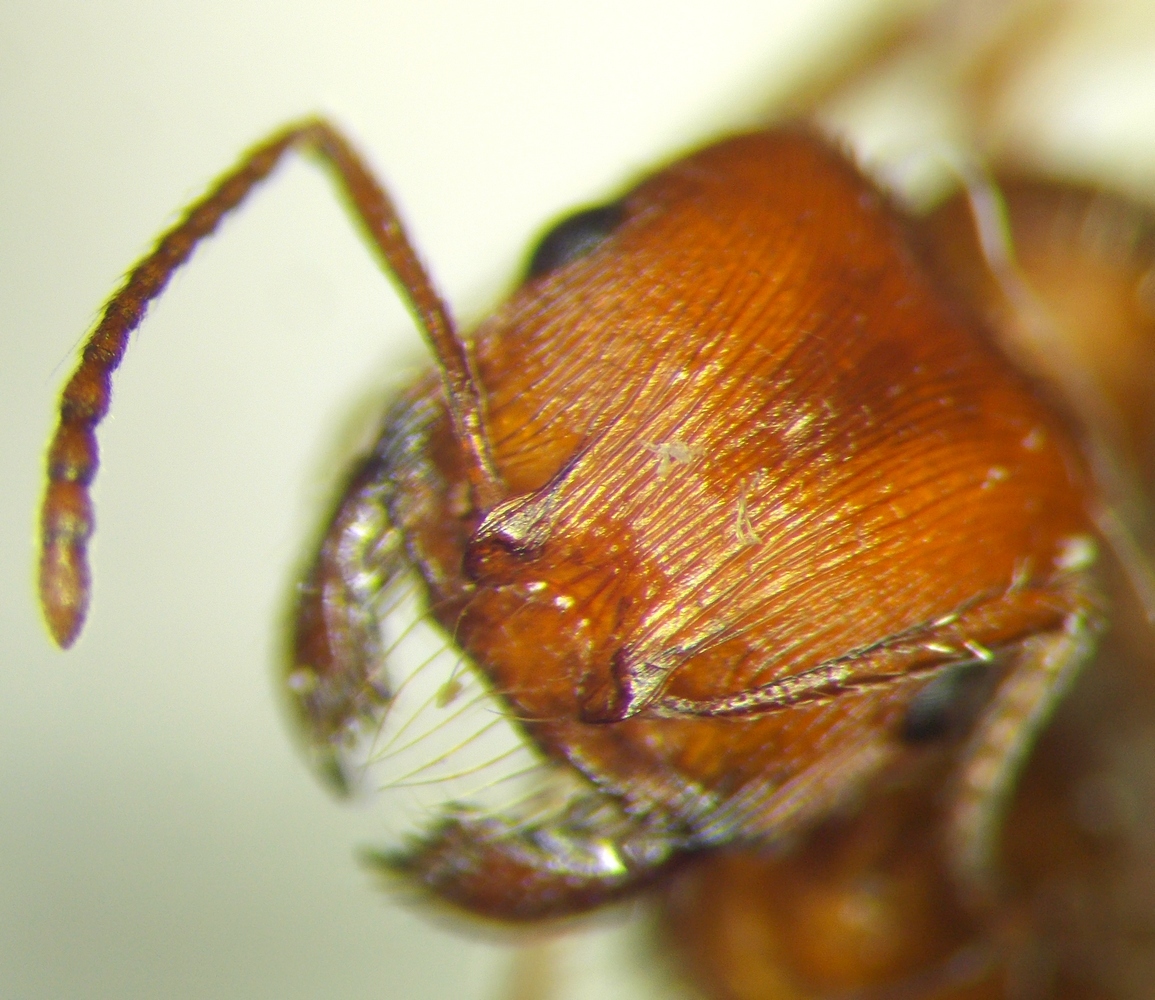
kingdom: Animalia
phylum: Arthropoda
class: Insecta
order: Hymenoptera
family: Formicidae
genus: Pogonomyrmex
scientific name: Pogonomyrmex subnitidus
